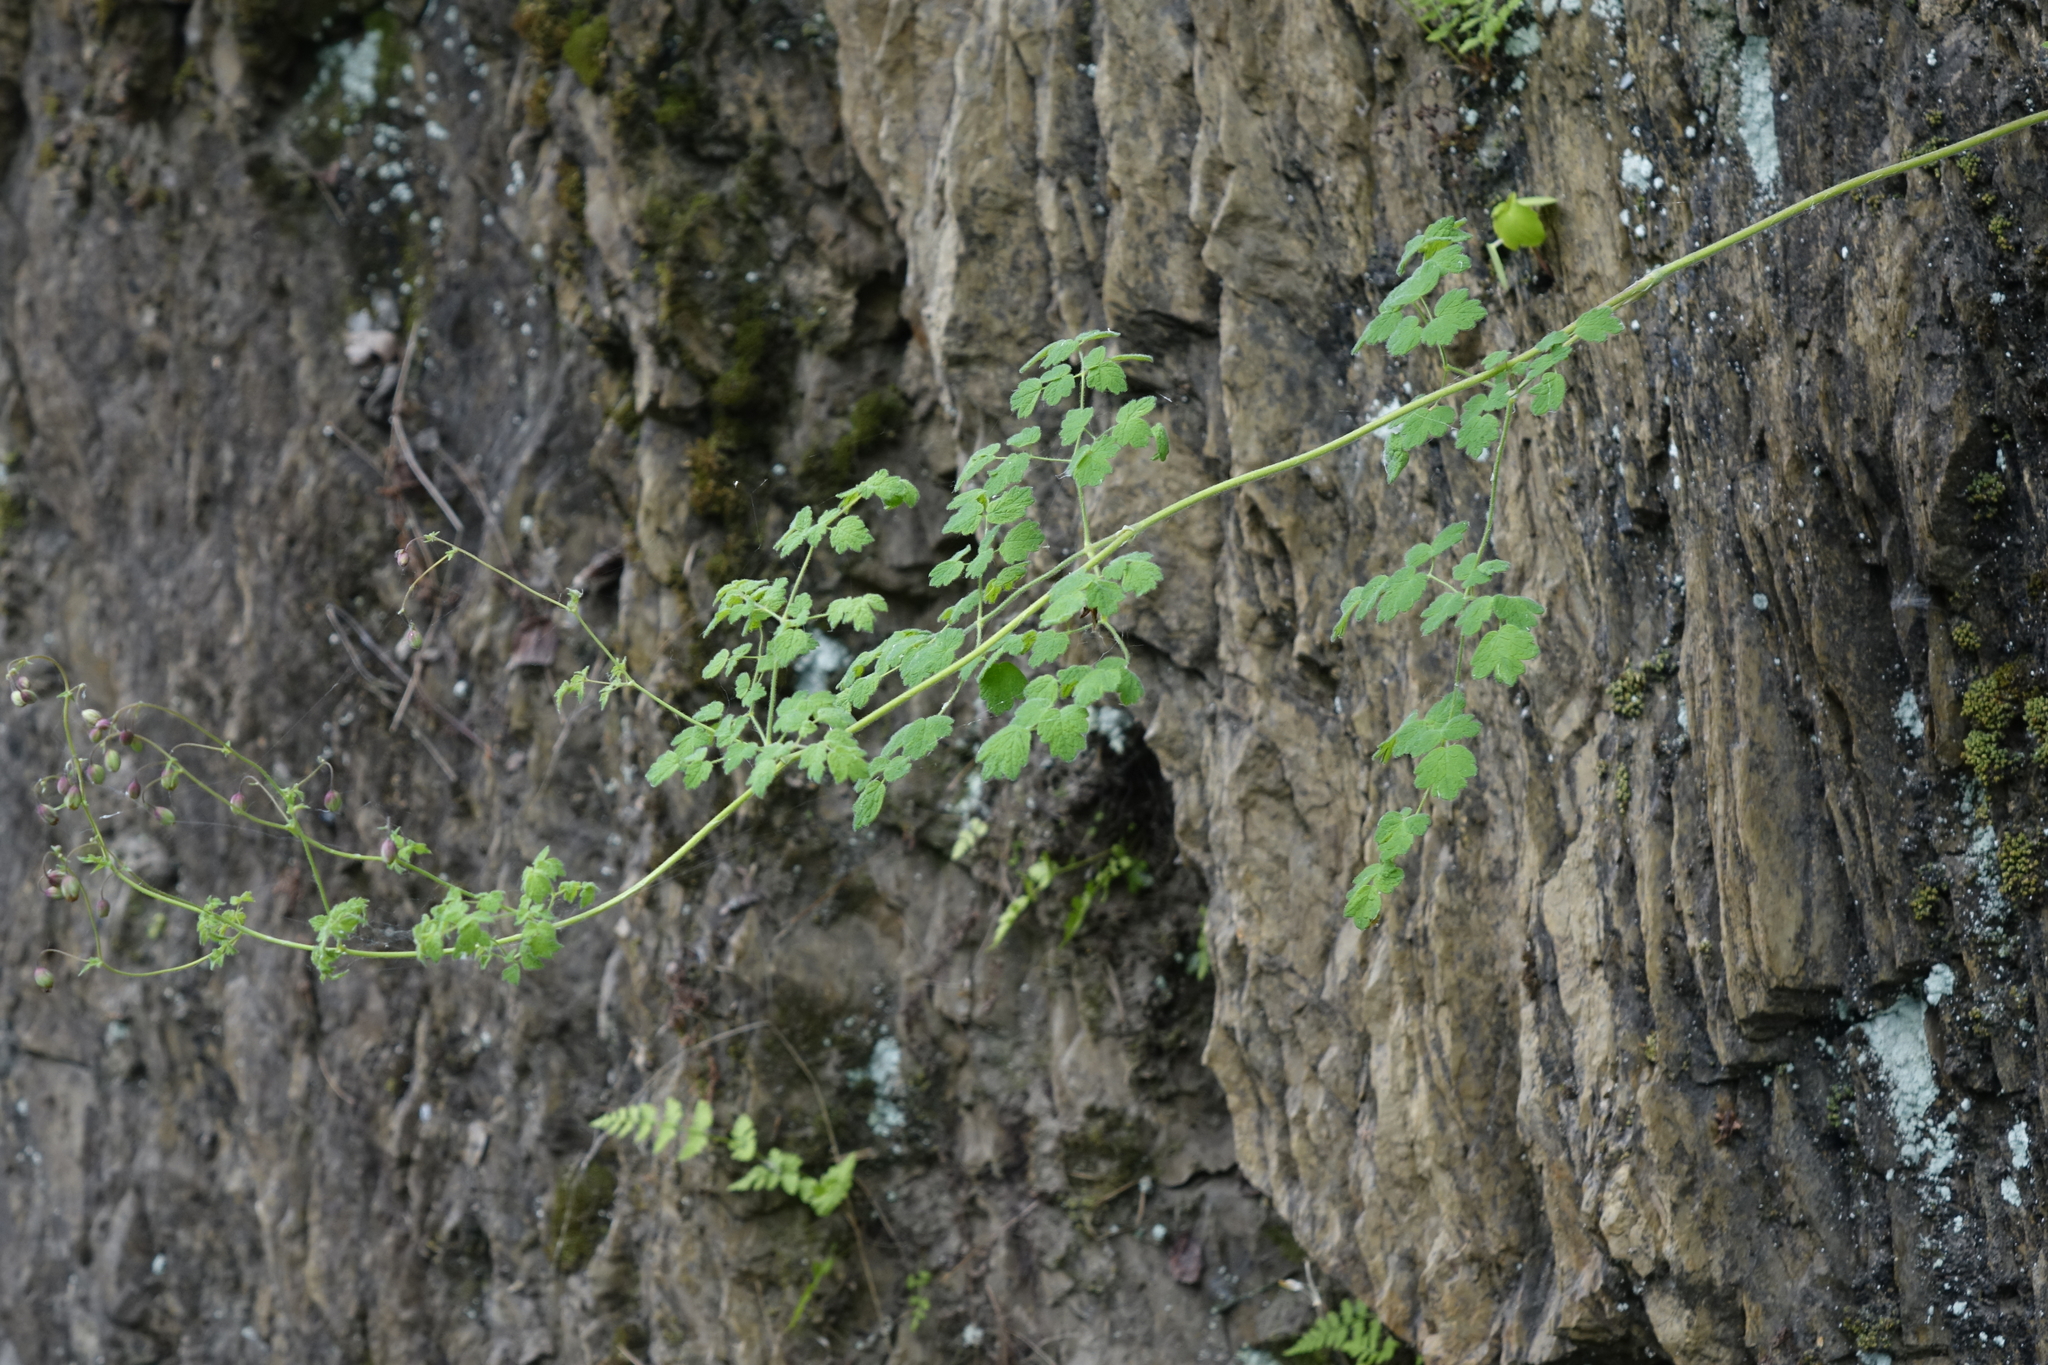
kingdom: Plantae
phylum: Tracheophyta
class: Magnoliopsida
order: Ranunculales
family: Ranunculaceae
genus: Thalictrum
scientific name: Thalictrum foetidum
